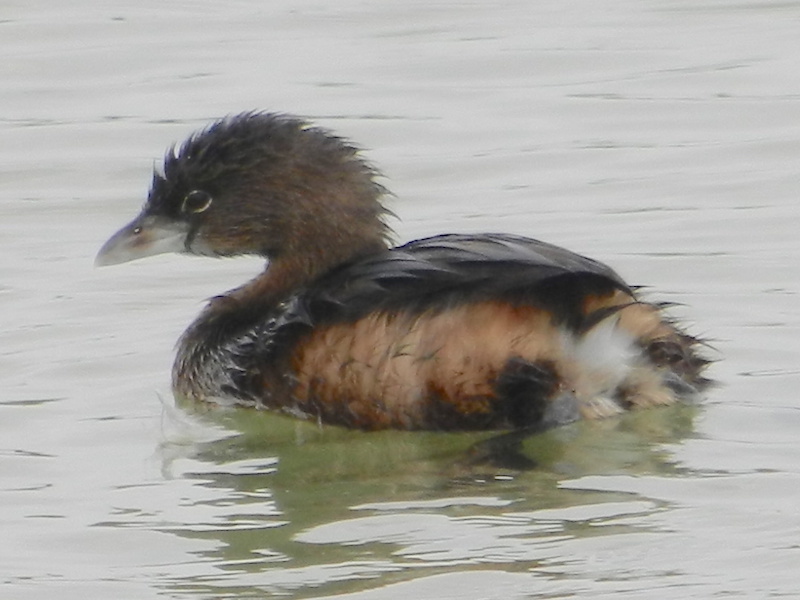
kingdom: Animalia
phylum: Chordata
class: Aves
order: Podicipediformes
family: Podicipedidae
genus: Podilymbus
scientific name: Podilymbus podiceps
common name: Pied-billed grebe
